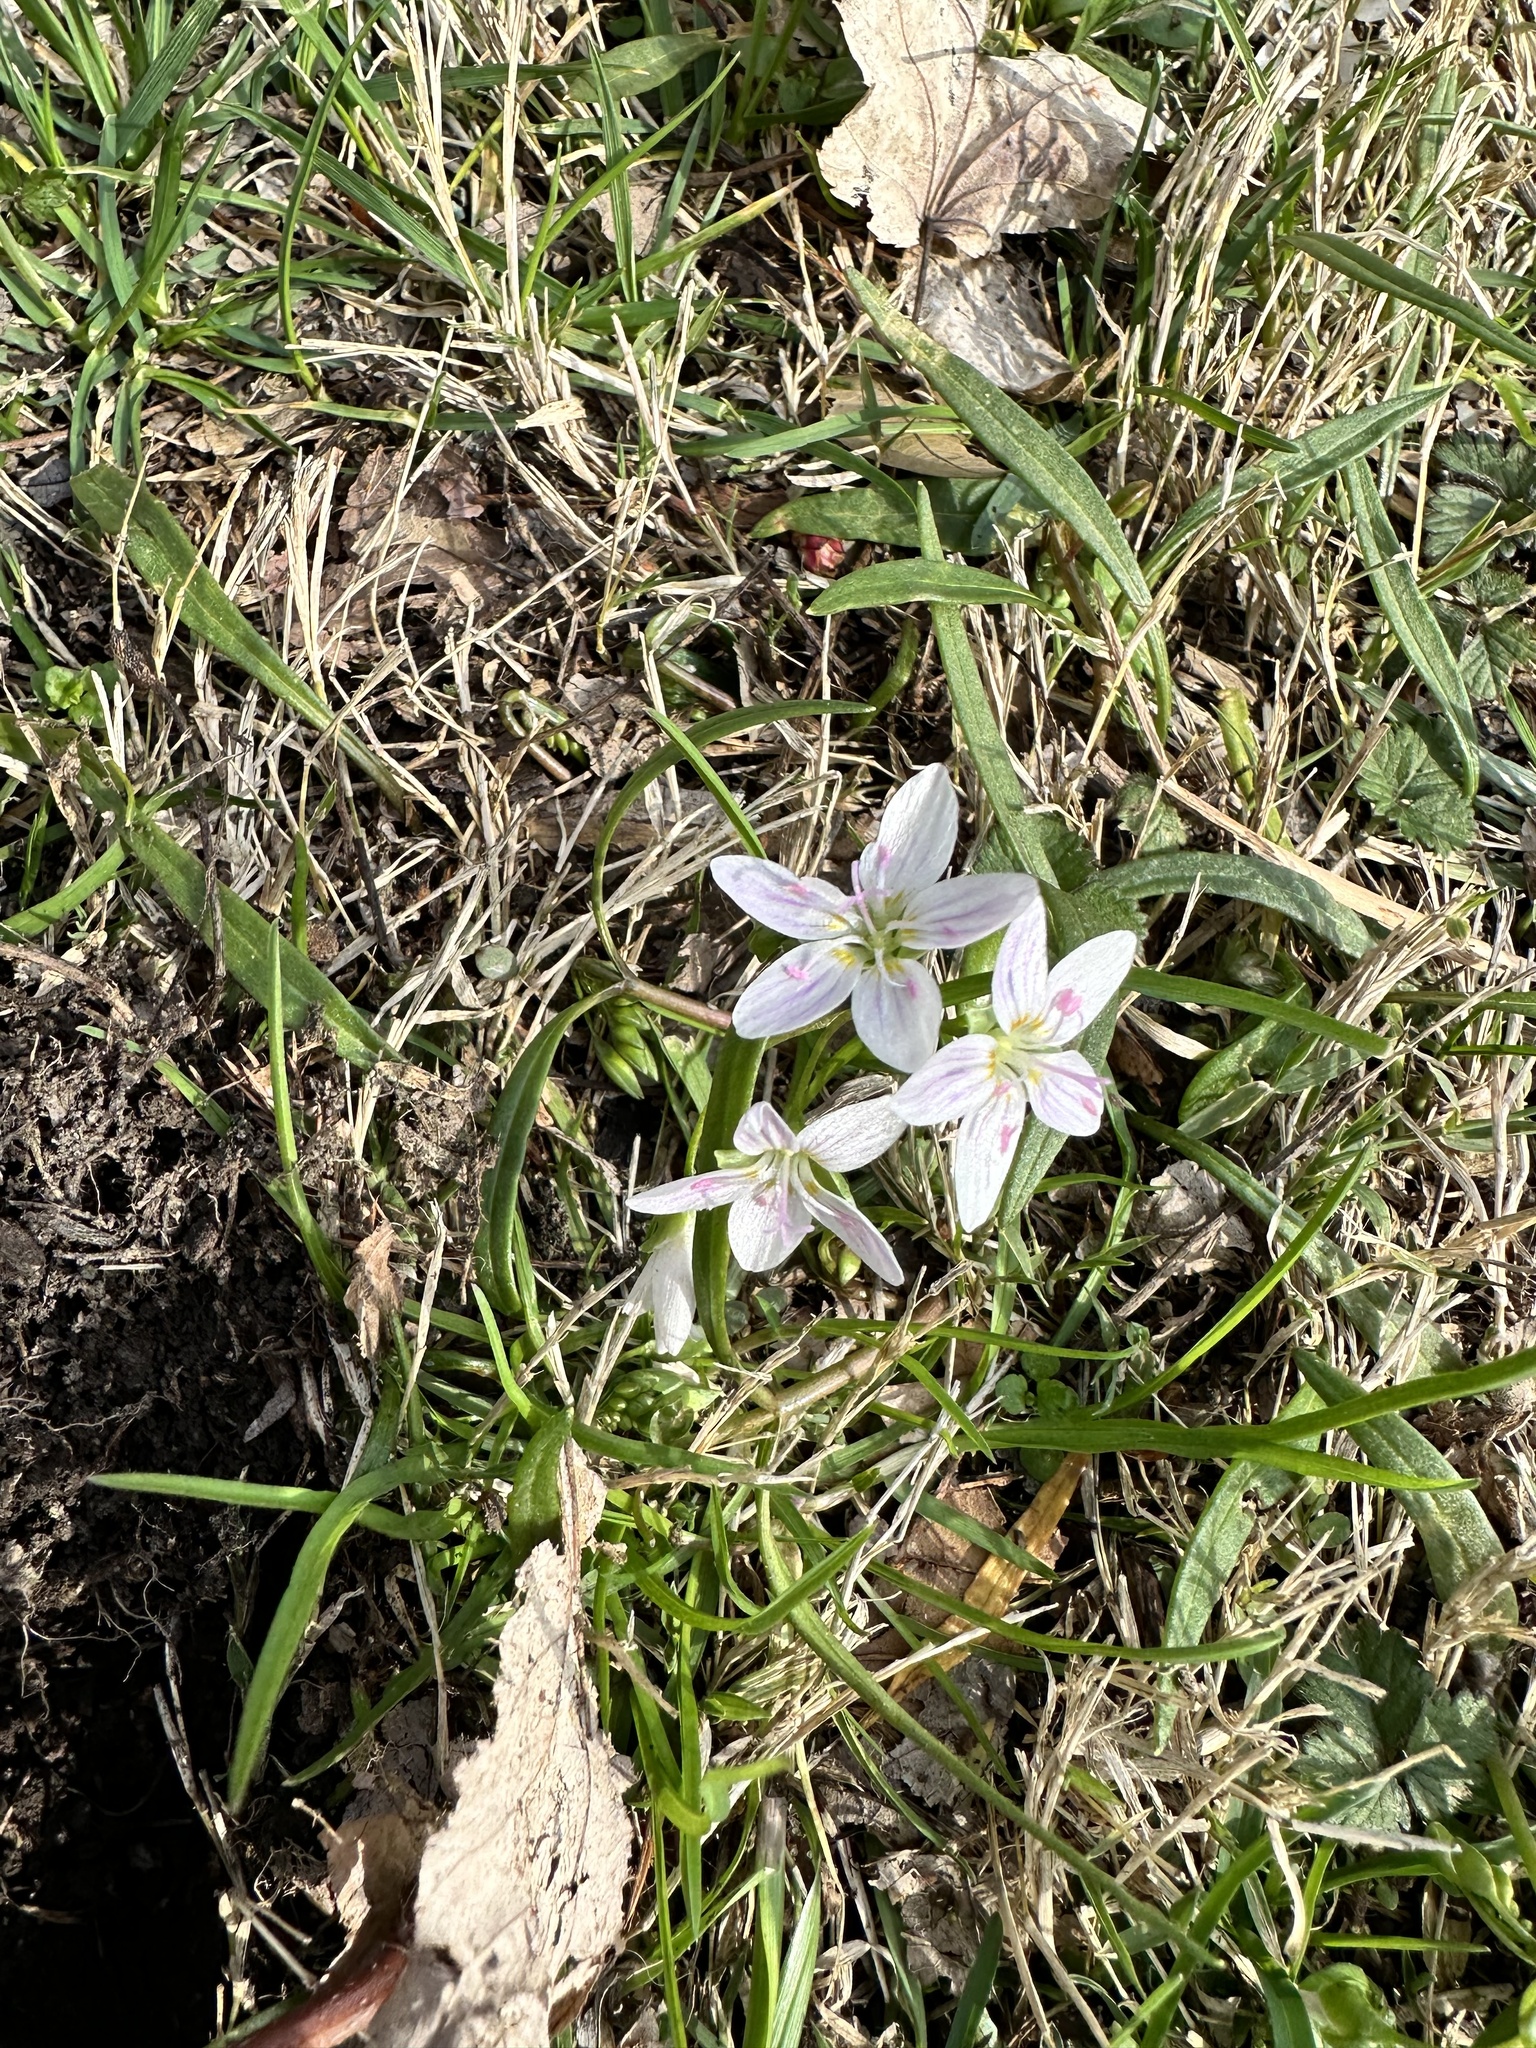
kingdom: Plantae
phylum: Tracheophyta
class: Magnoliopsida
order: Caryophyllales
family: Montiaceae
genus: Claytonia
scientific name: Claytonia virginica
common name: Virginia springbeauty
